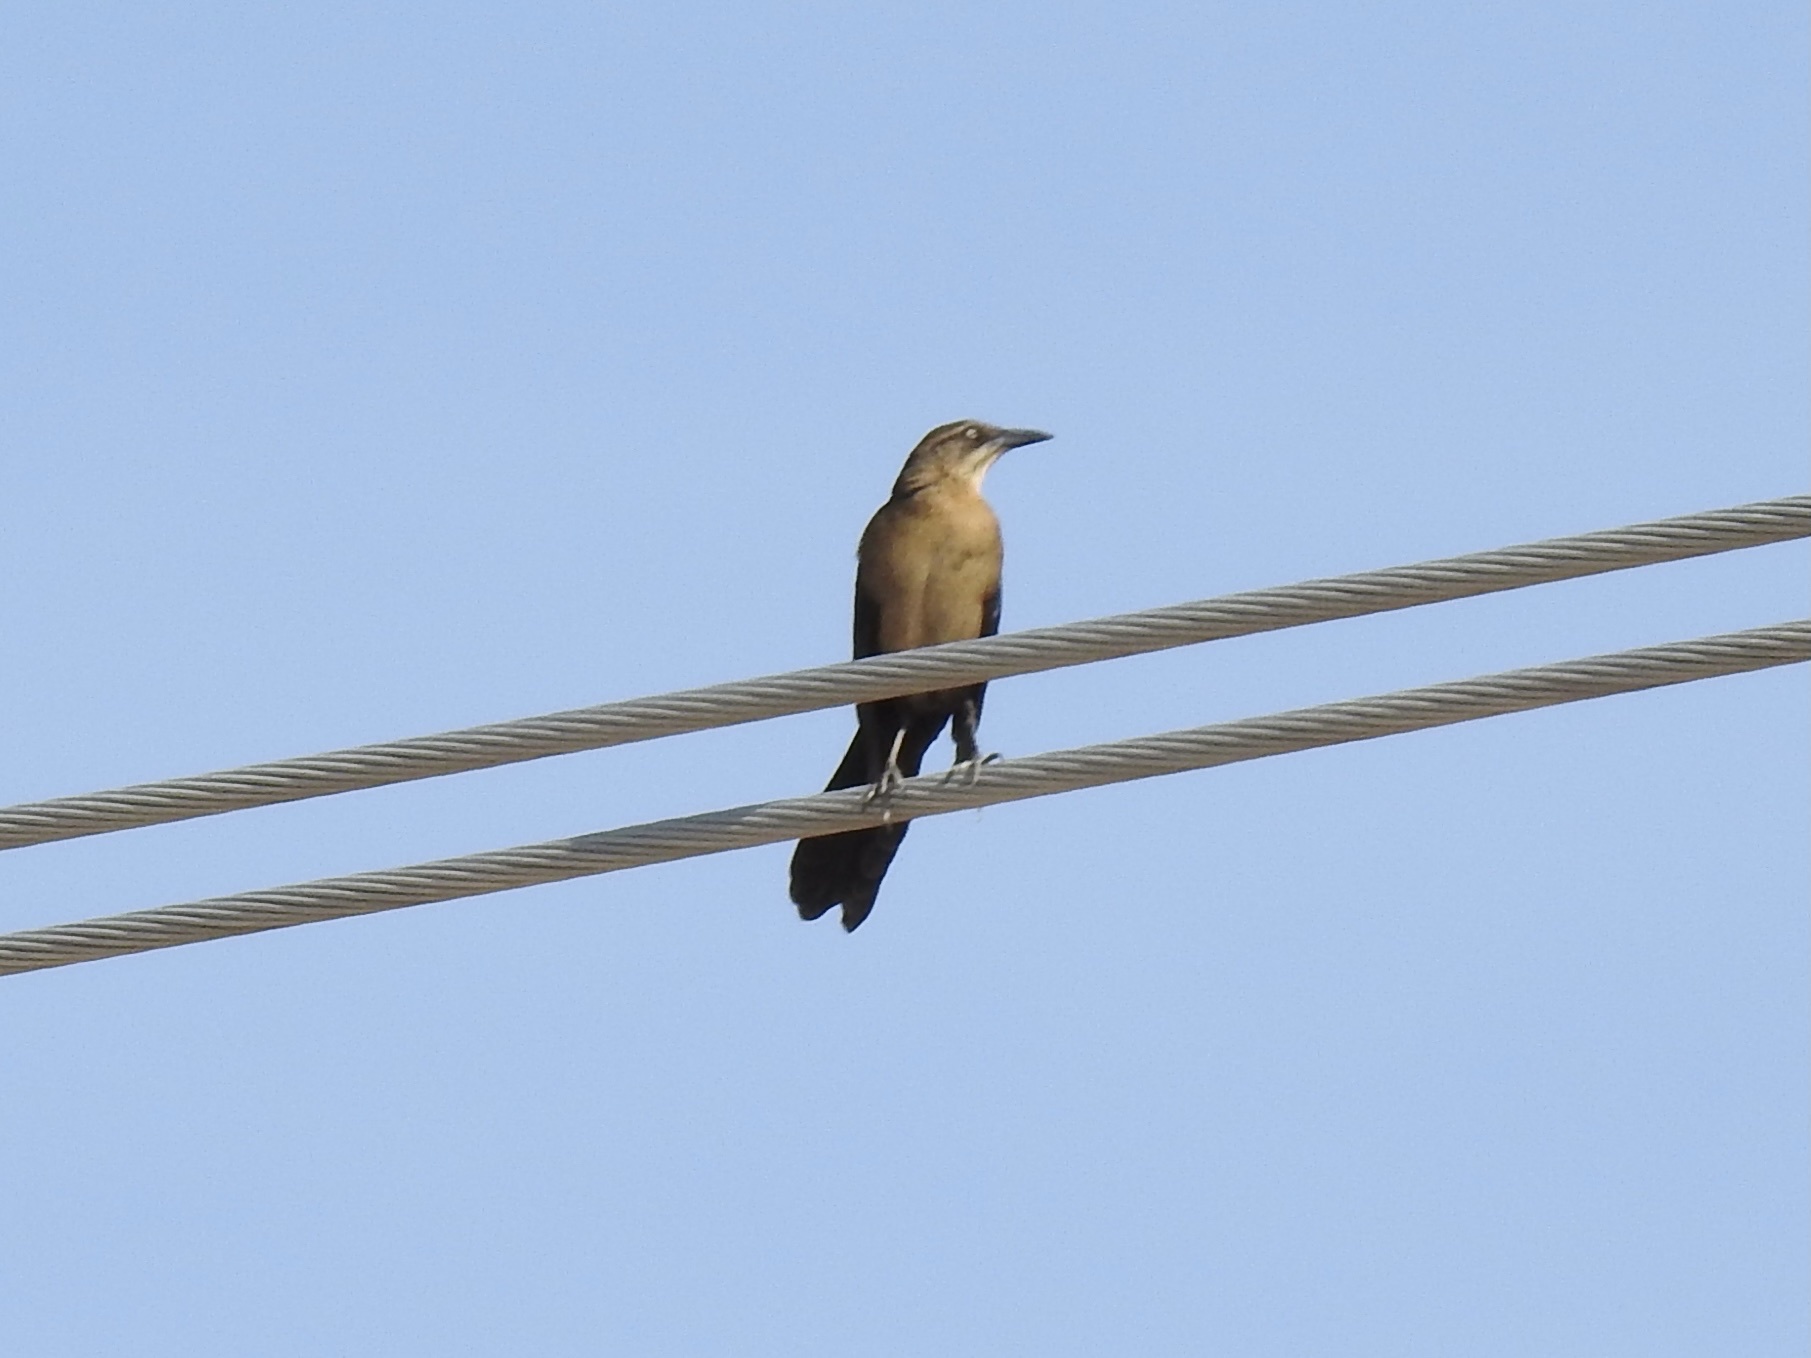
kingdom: Animalia
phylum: Chordata
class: Aves
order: Passeriformes
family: Icteridae
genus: Quiscalus
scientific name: Quiscalus mexicanus
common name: Great-tailed grackle
